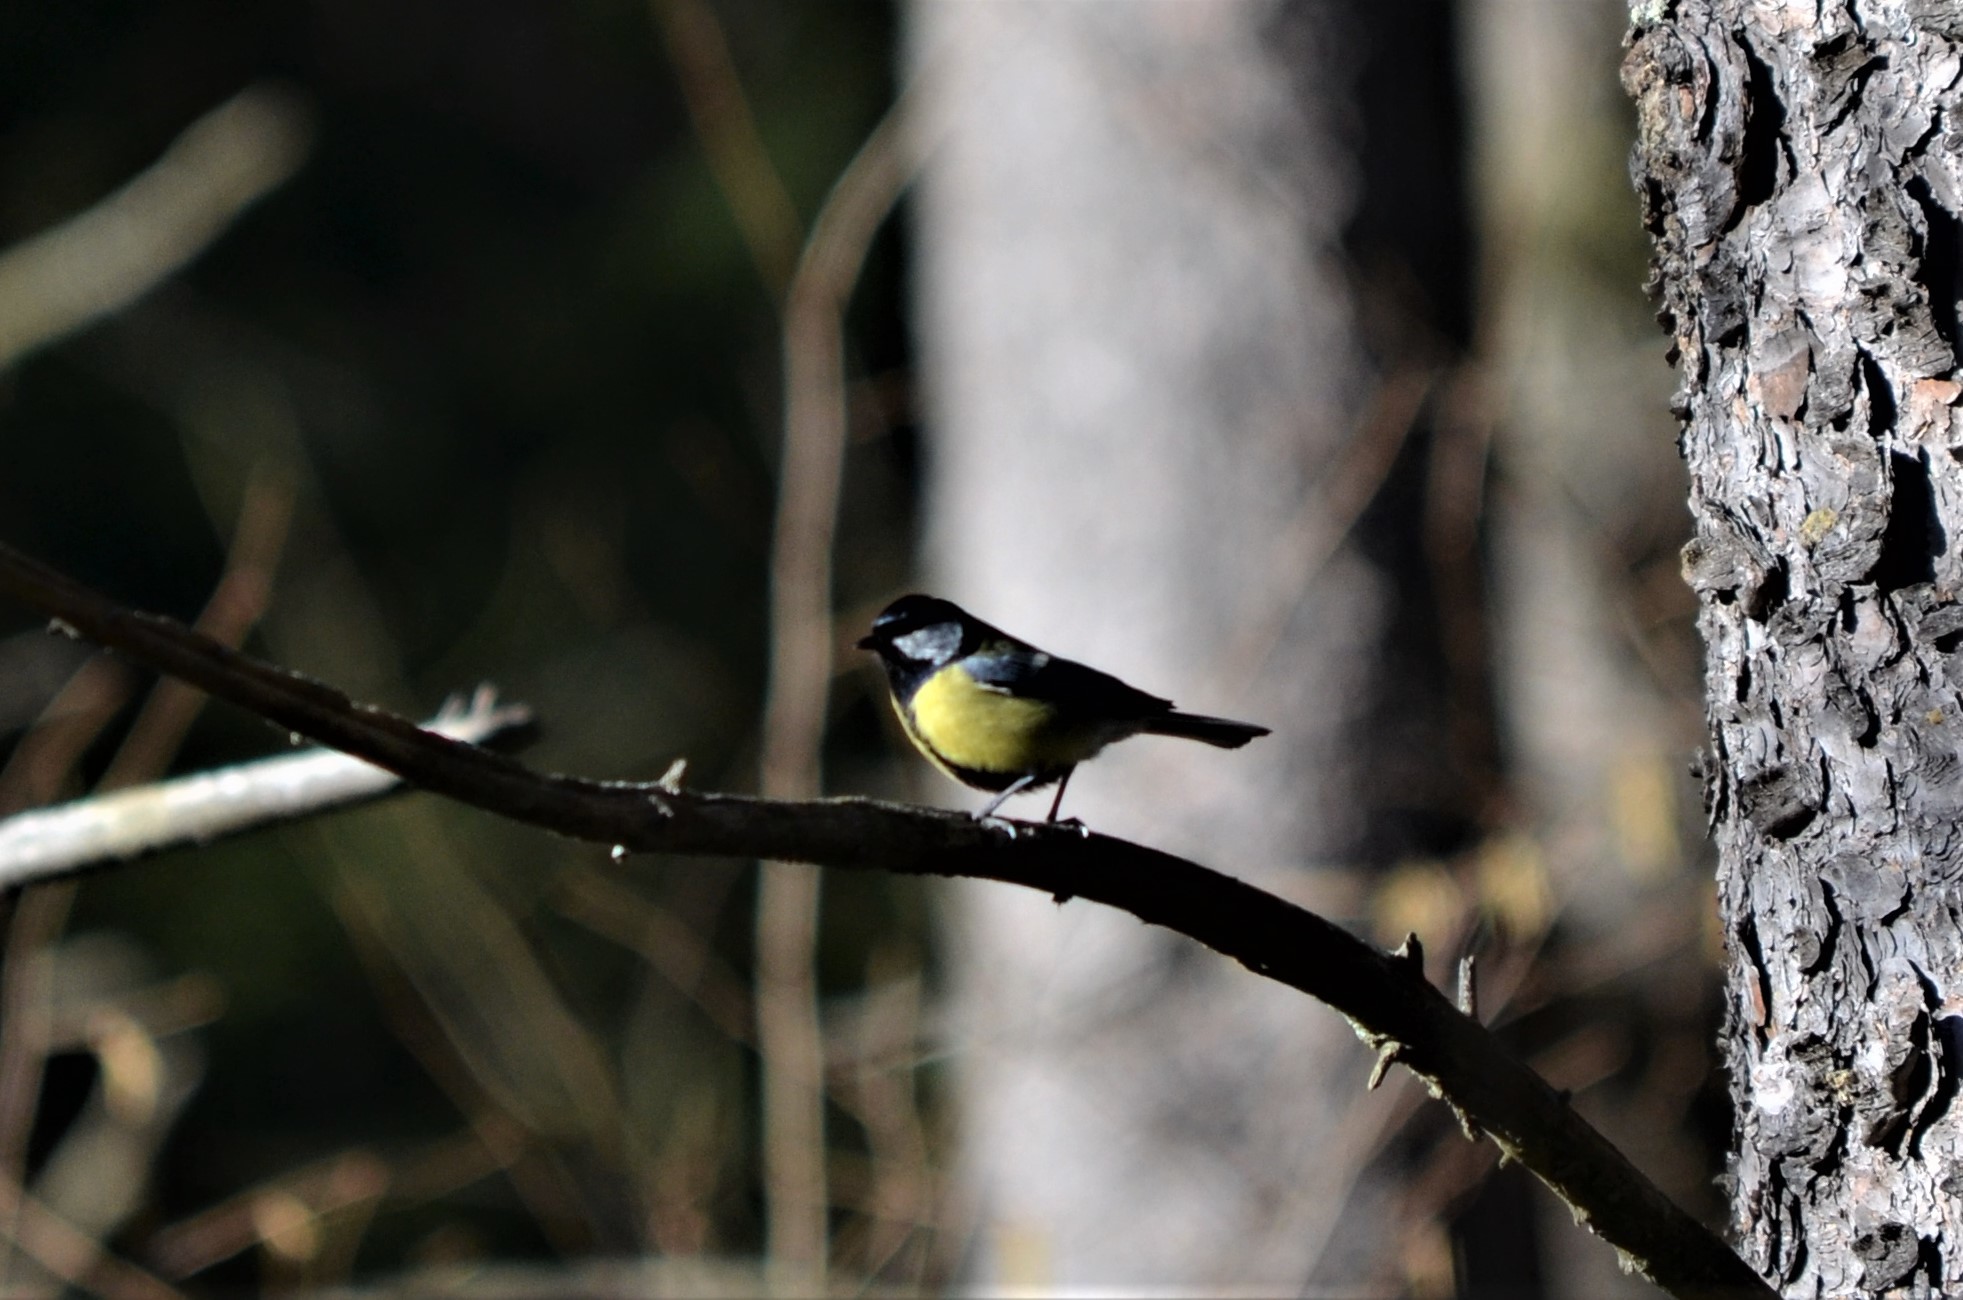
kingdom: Animalia
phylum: Chordata
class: Aves
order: Passeriformes
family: Paridae
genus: Parus
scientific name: Parus major
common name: Great tit
